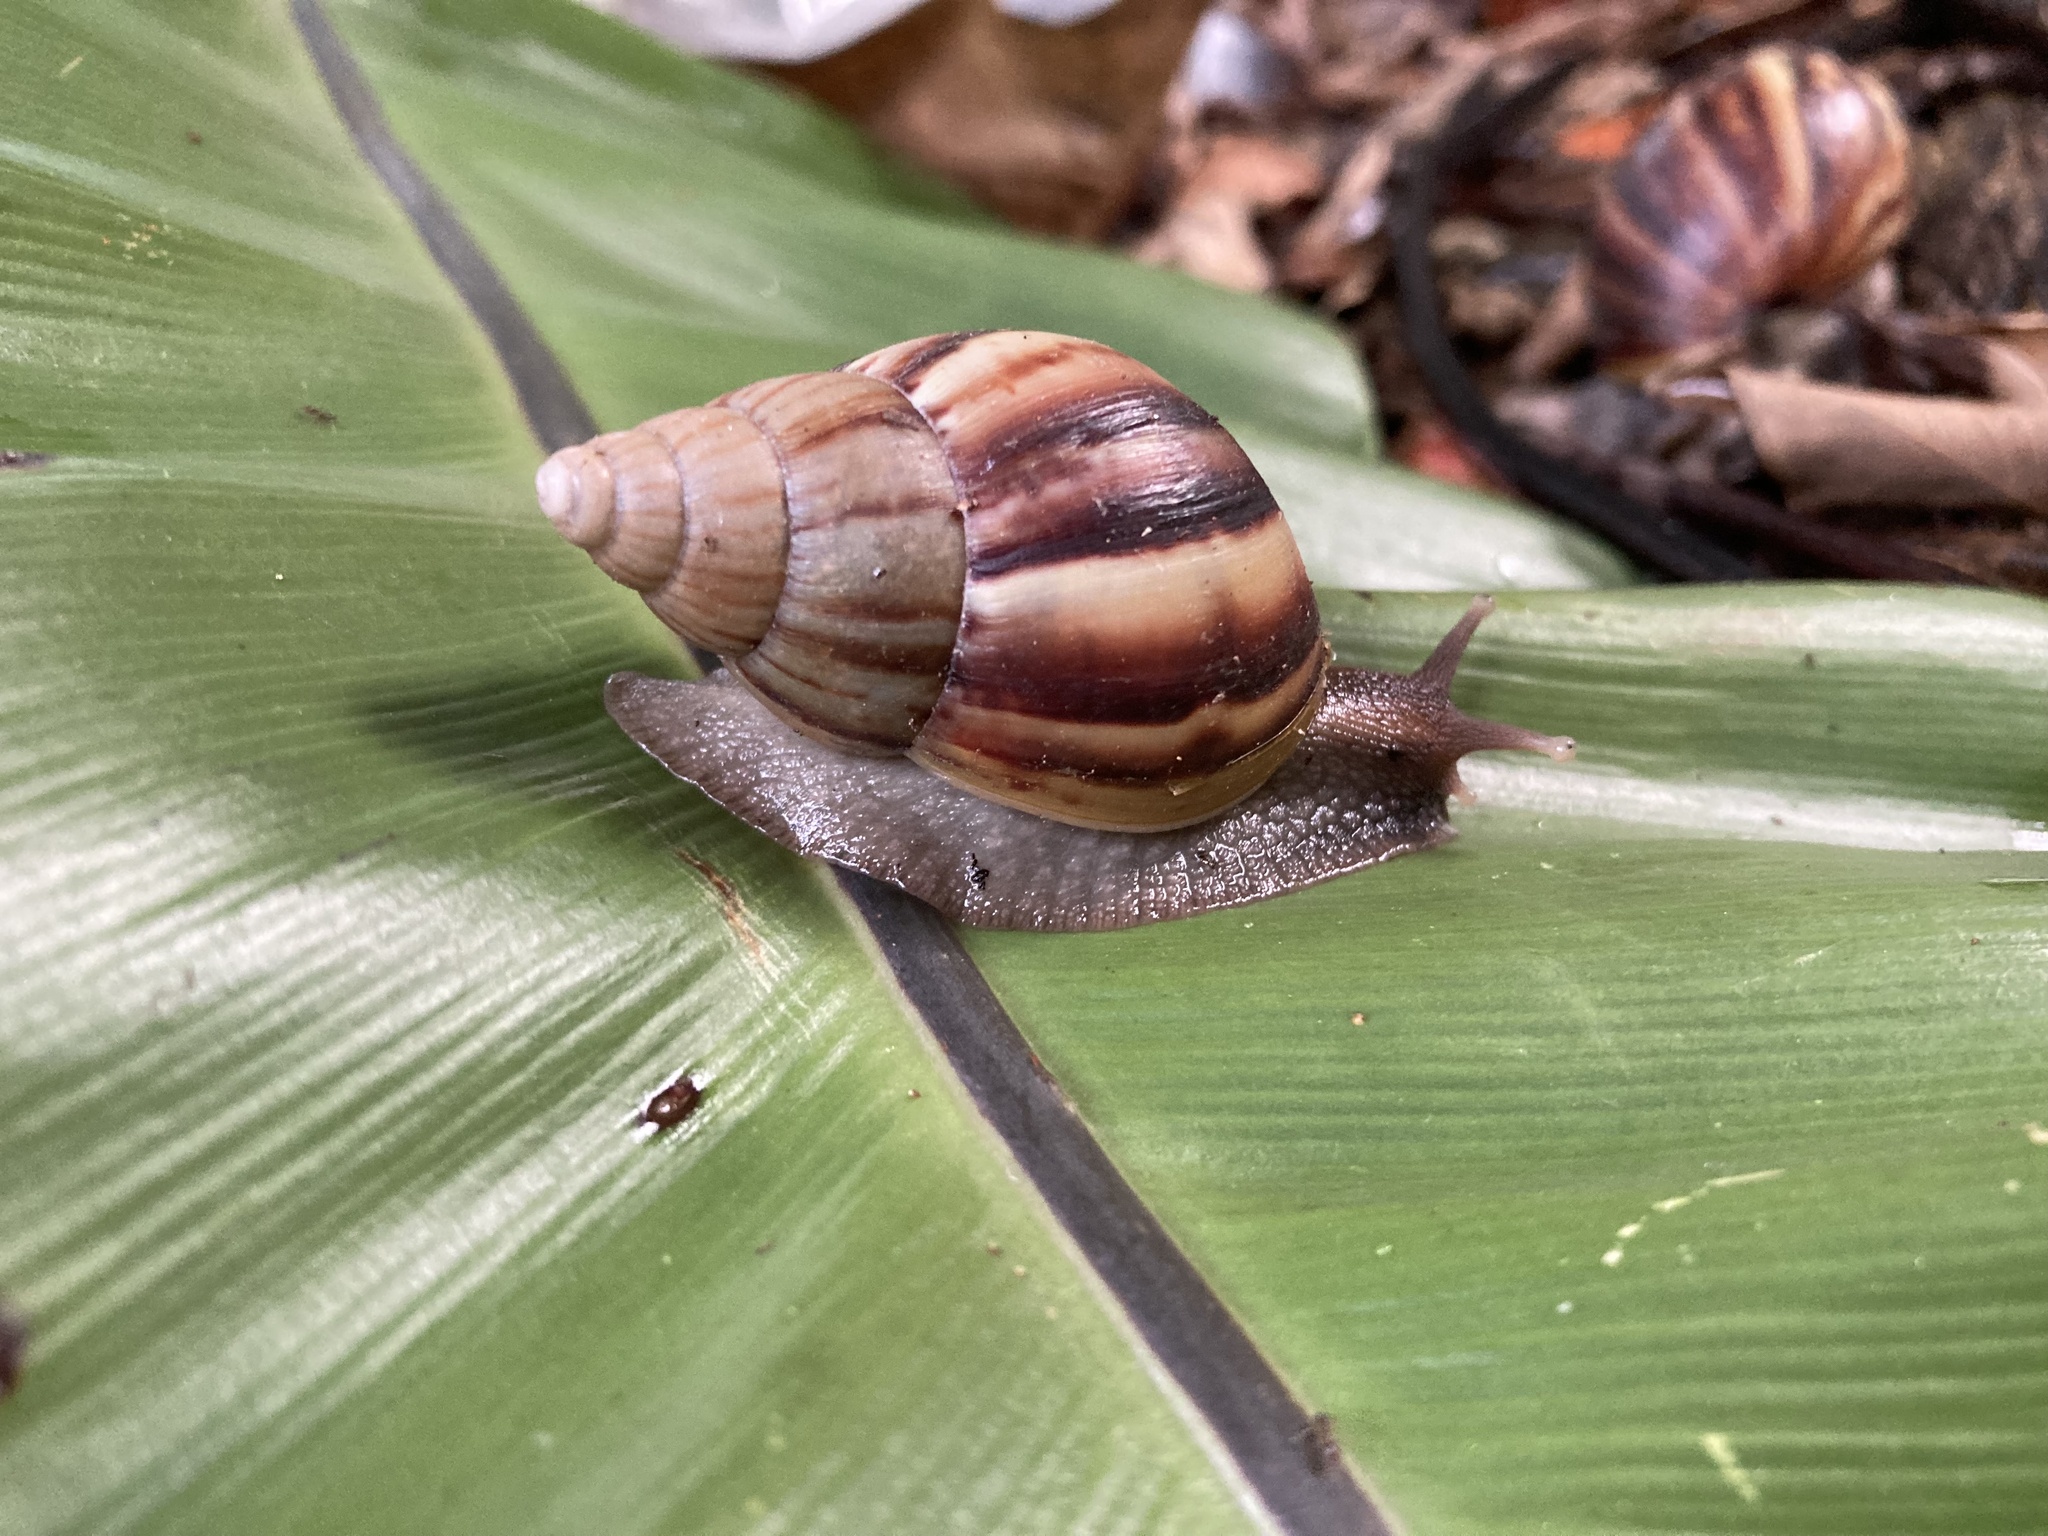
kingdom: Animalia
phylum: Mollusca
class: Gastropoda
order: Stylommatophora
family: Achatinidae
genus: Lissachatina
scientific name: Lissachatina fulica
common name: Giant african snail
